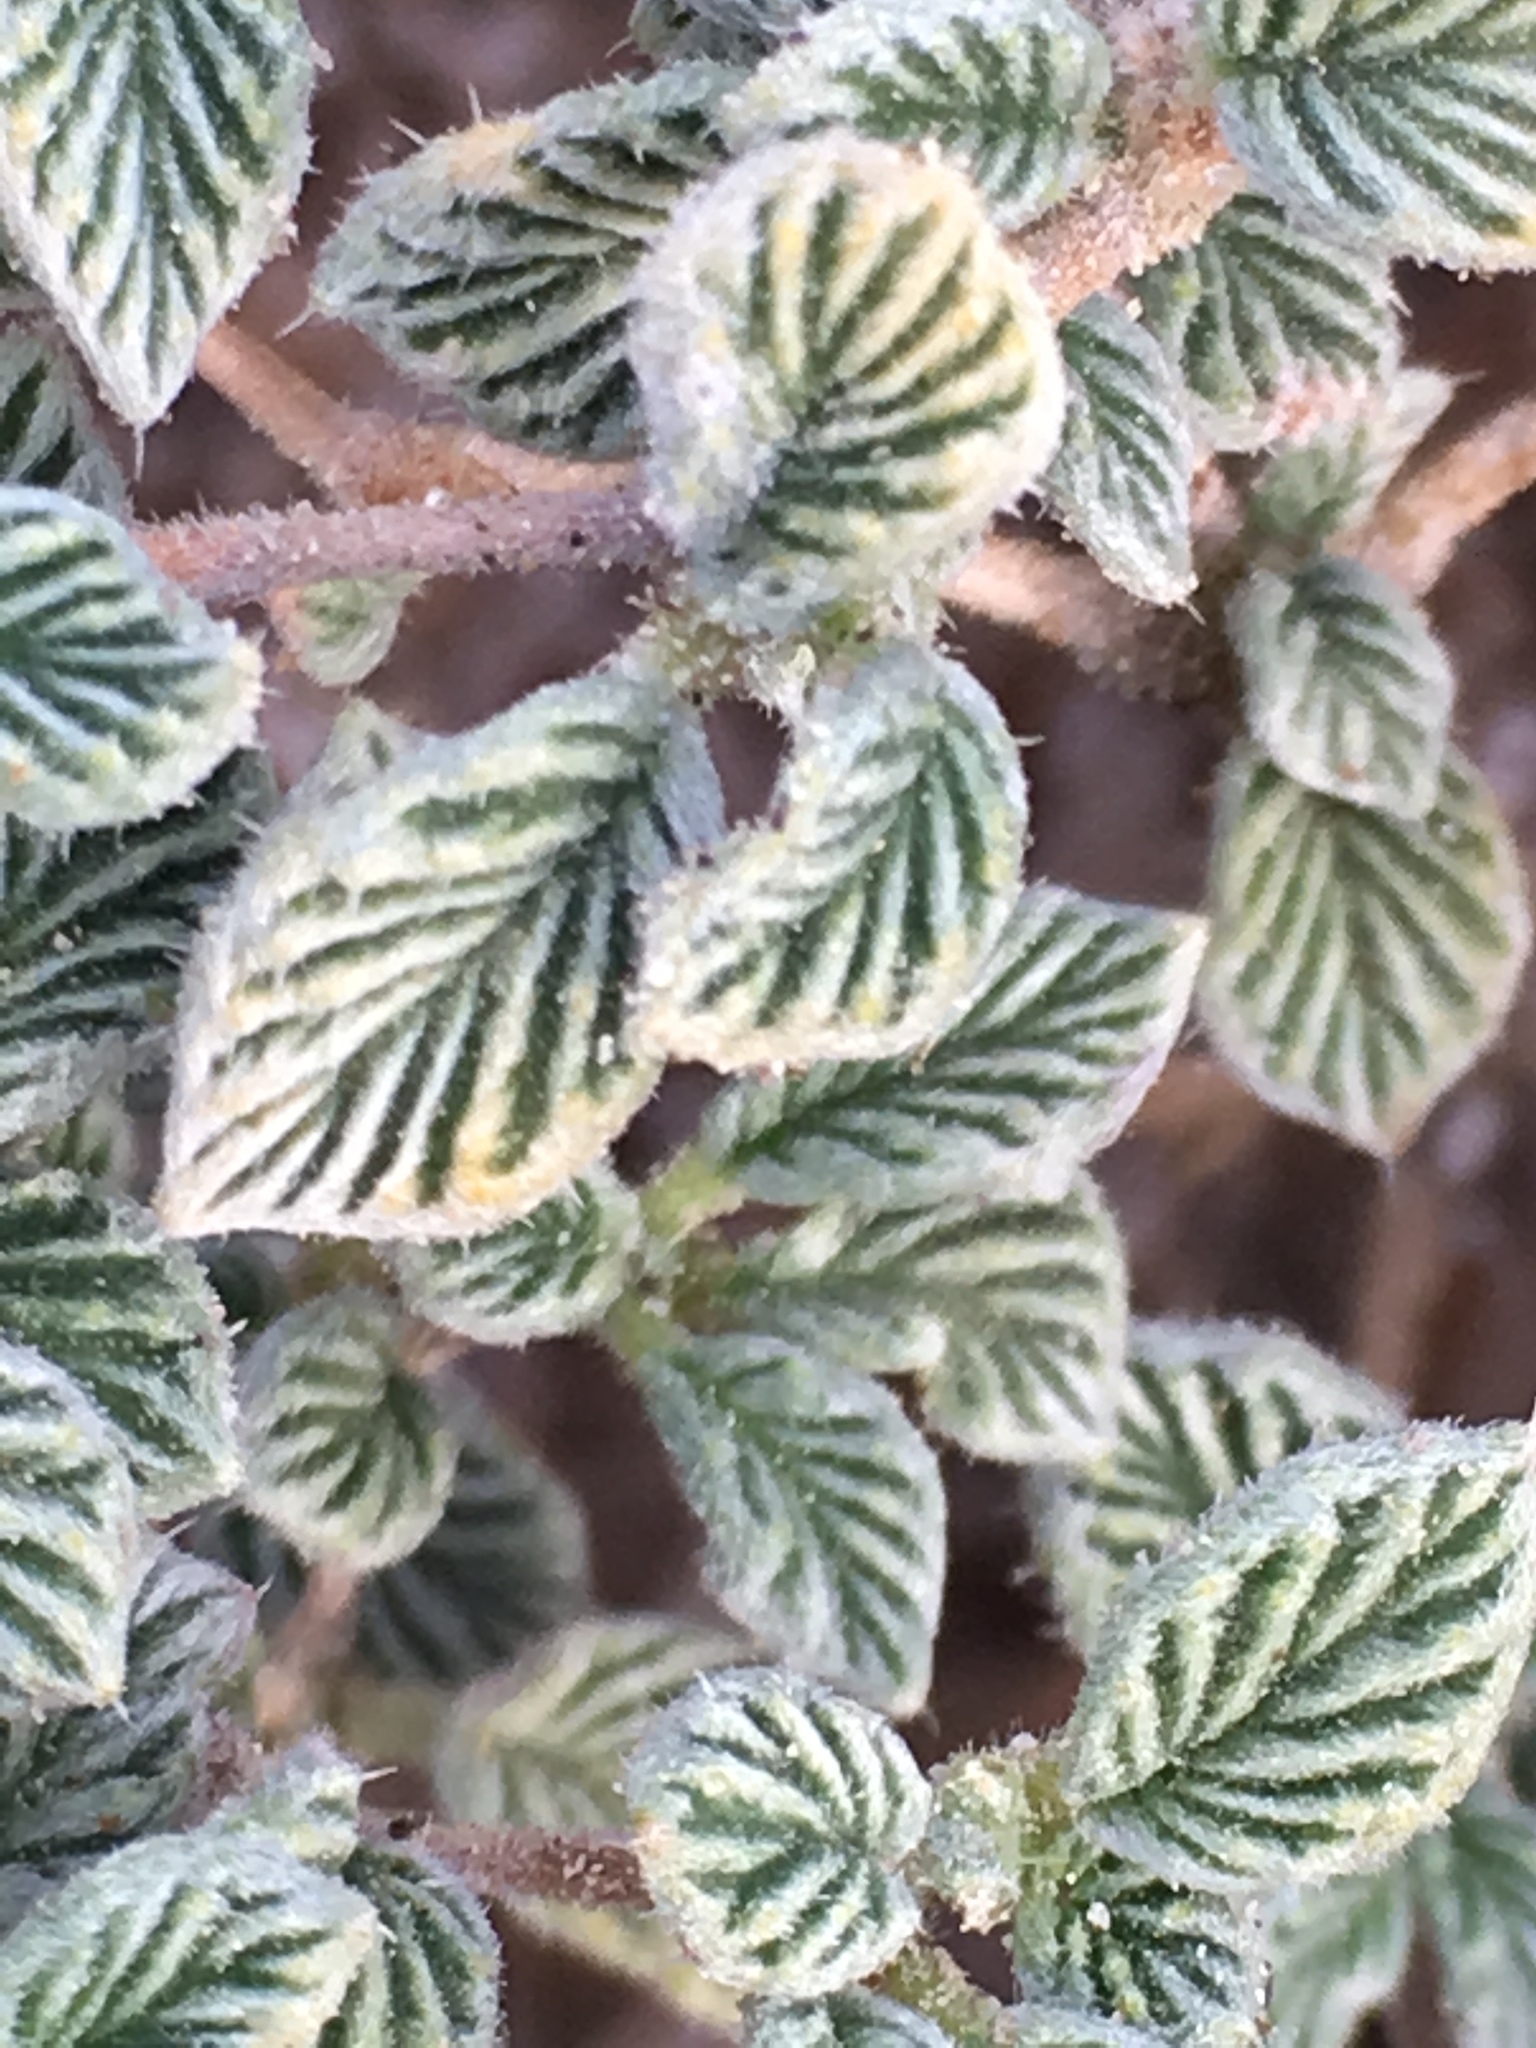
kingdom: Plantae
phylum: Tracheophyta
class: Magnoliopsida
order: Boraginales
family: Ehretiaceae
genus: Tiquilia
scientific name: Tiquilia plicata
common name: Fan-leaf tiquilia
